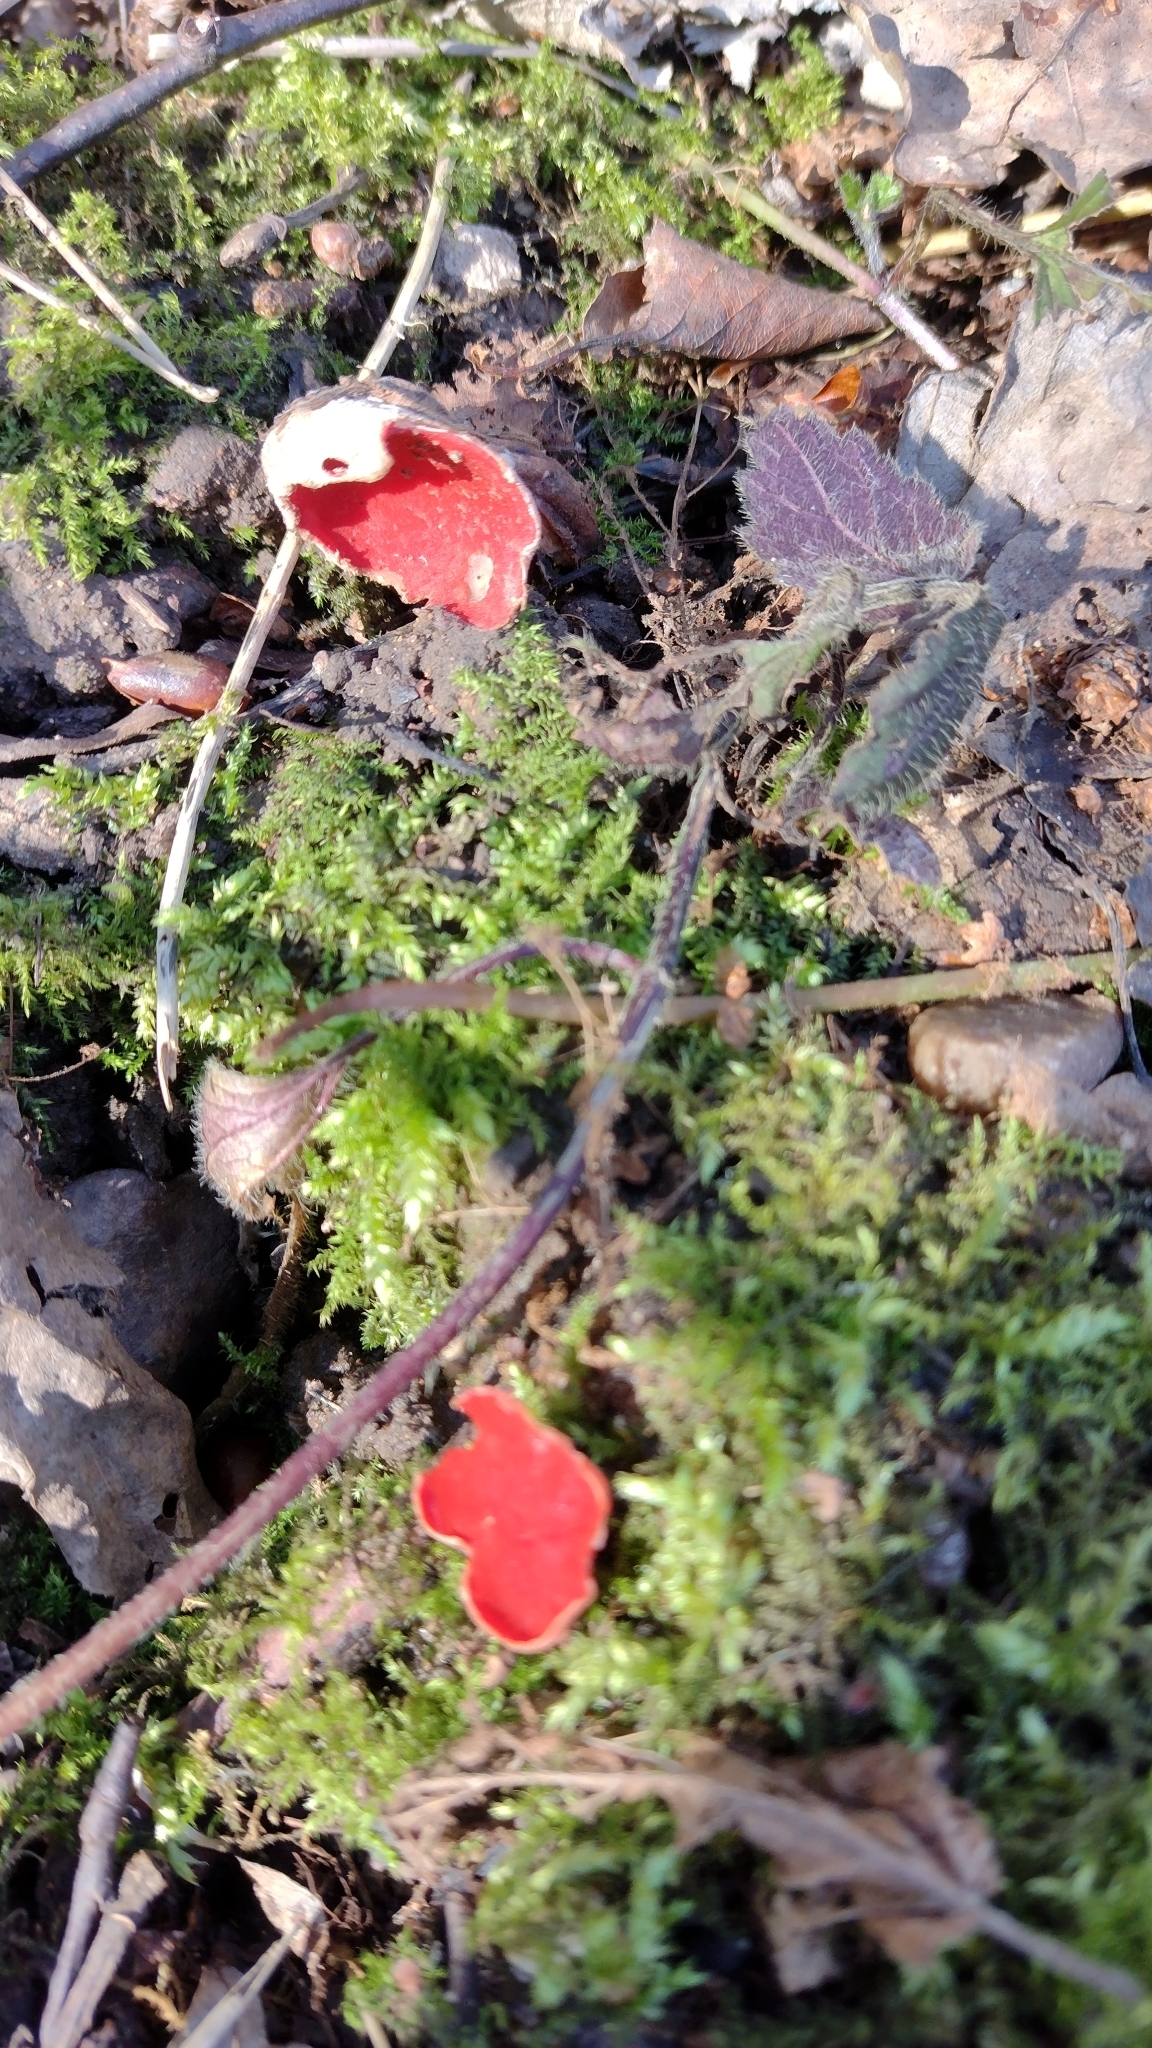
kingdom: Fungi
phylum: Ascomycota
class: Pezizomycetes
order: Pezizales
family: Sarcoscyphaceae
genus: Sarcoscypha
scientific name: Sarcoscypha
